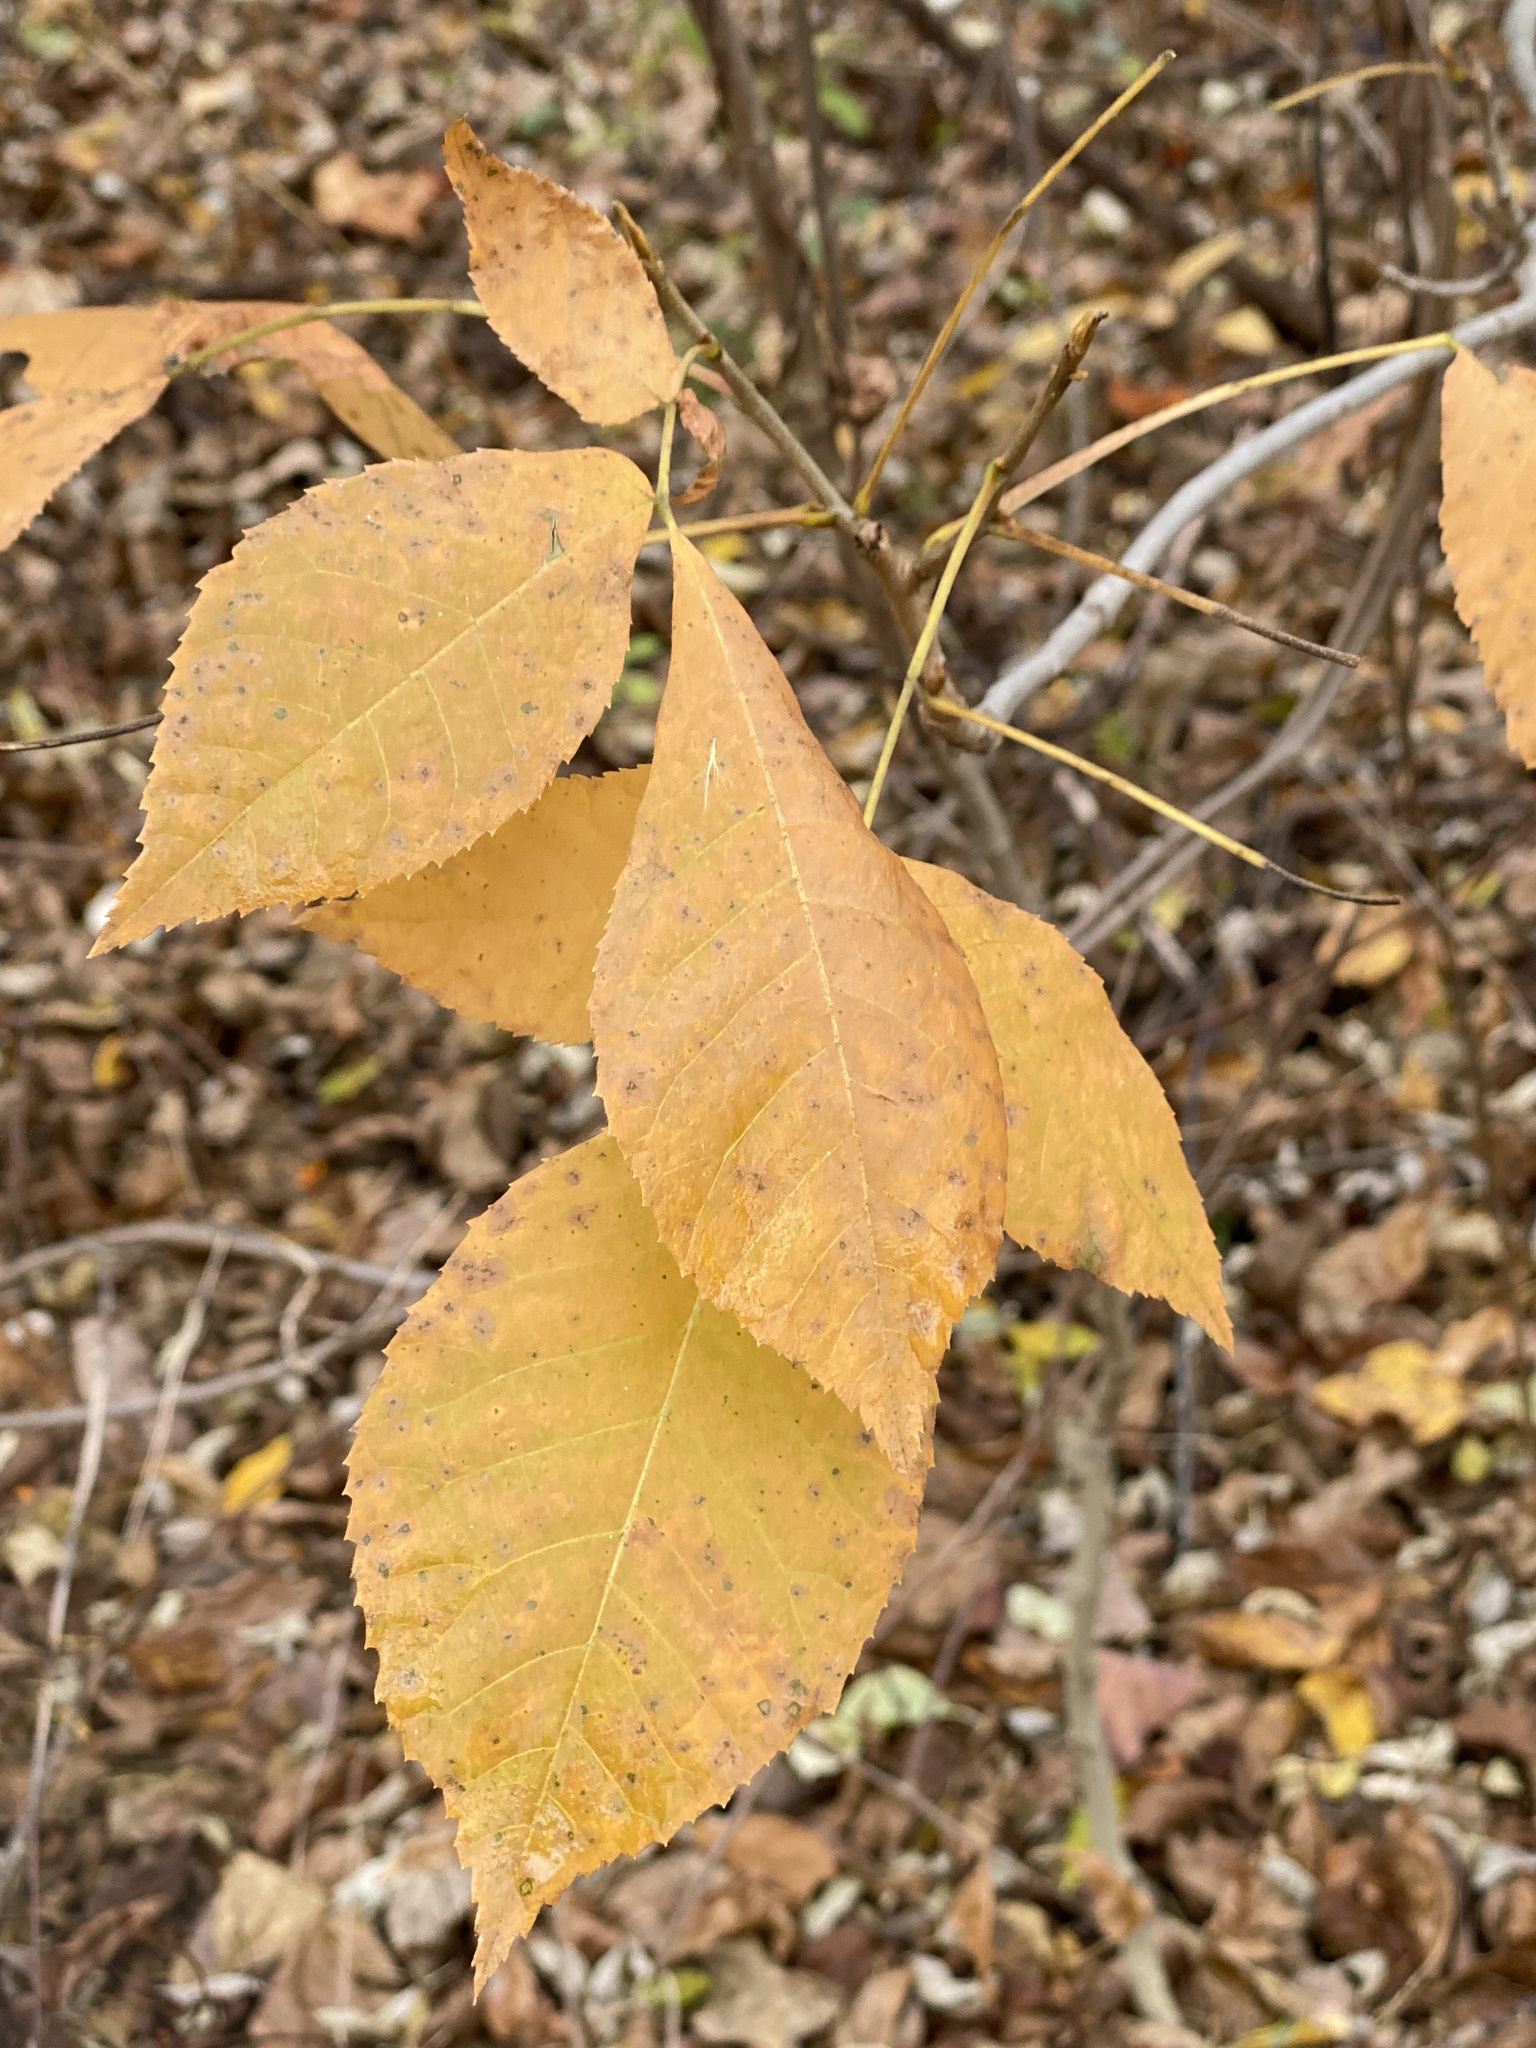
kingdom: Plantae
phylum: Tracheophyta
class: Magnoliopsida
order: Fagales
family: Juglandaceae
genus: Carya
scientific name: Carya cordiformis
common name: Bitternut hickory
